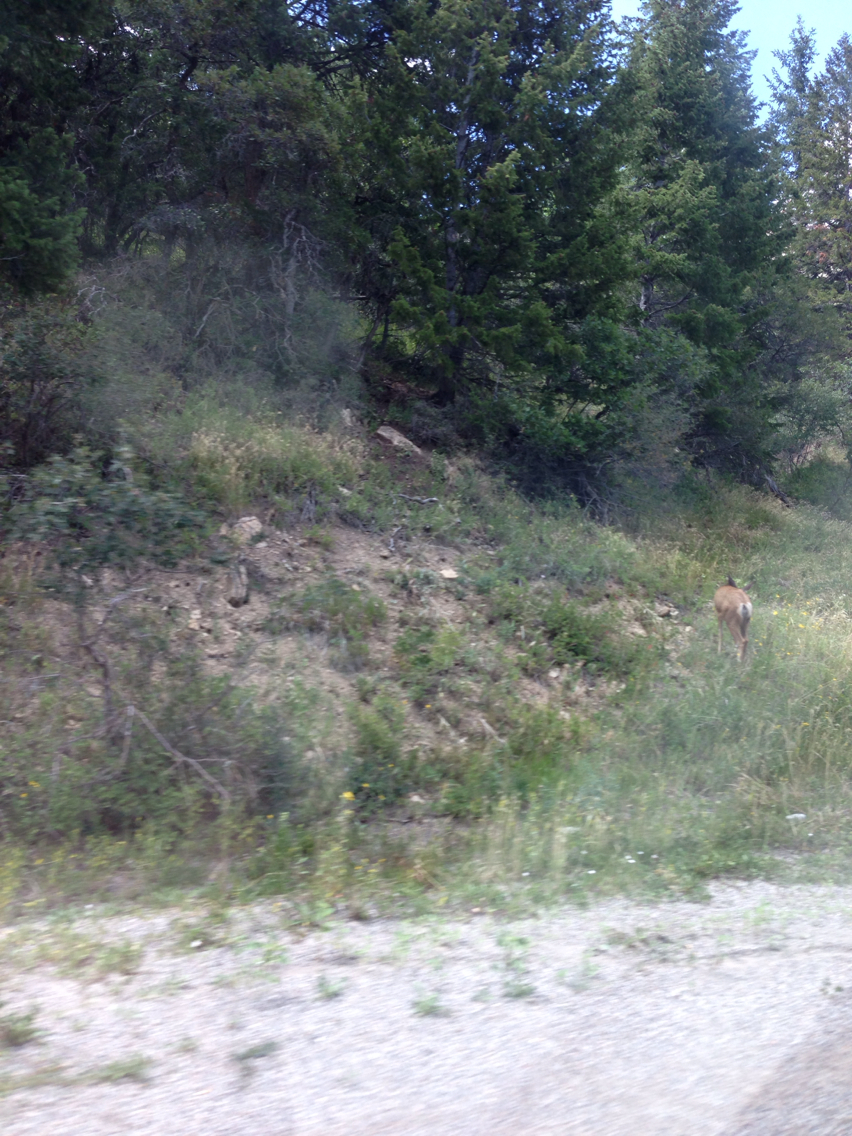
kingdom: Animalia
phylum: Chordata
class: Mammalia
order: Artiodactyla
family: Cervidae
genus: Odocoileus
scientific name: Odocoileus hemionus
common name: Mule deer
